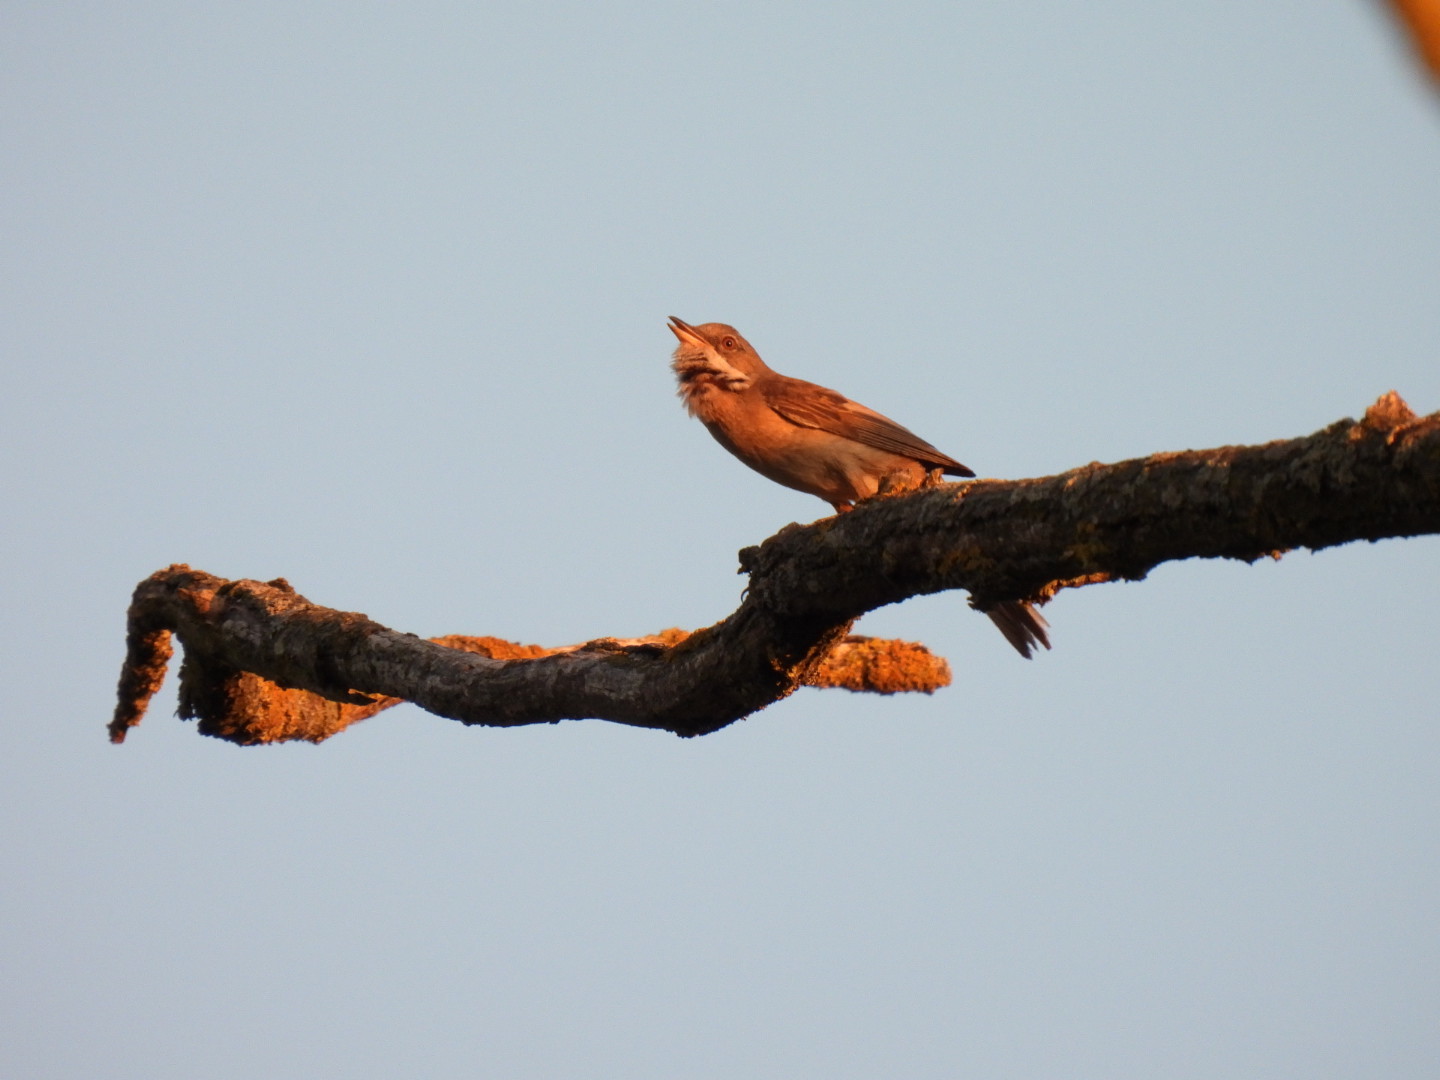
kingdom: Animalia
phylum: Chordata
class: Aves
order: Passeriformes
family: Sylviidae
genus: Sylvia
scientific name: Sylvia communis
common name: Common whitethroat
